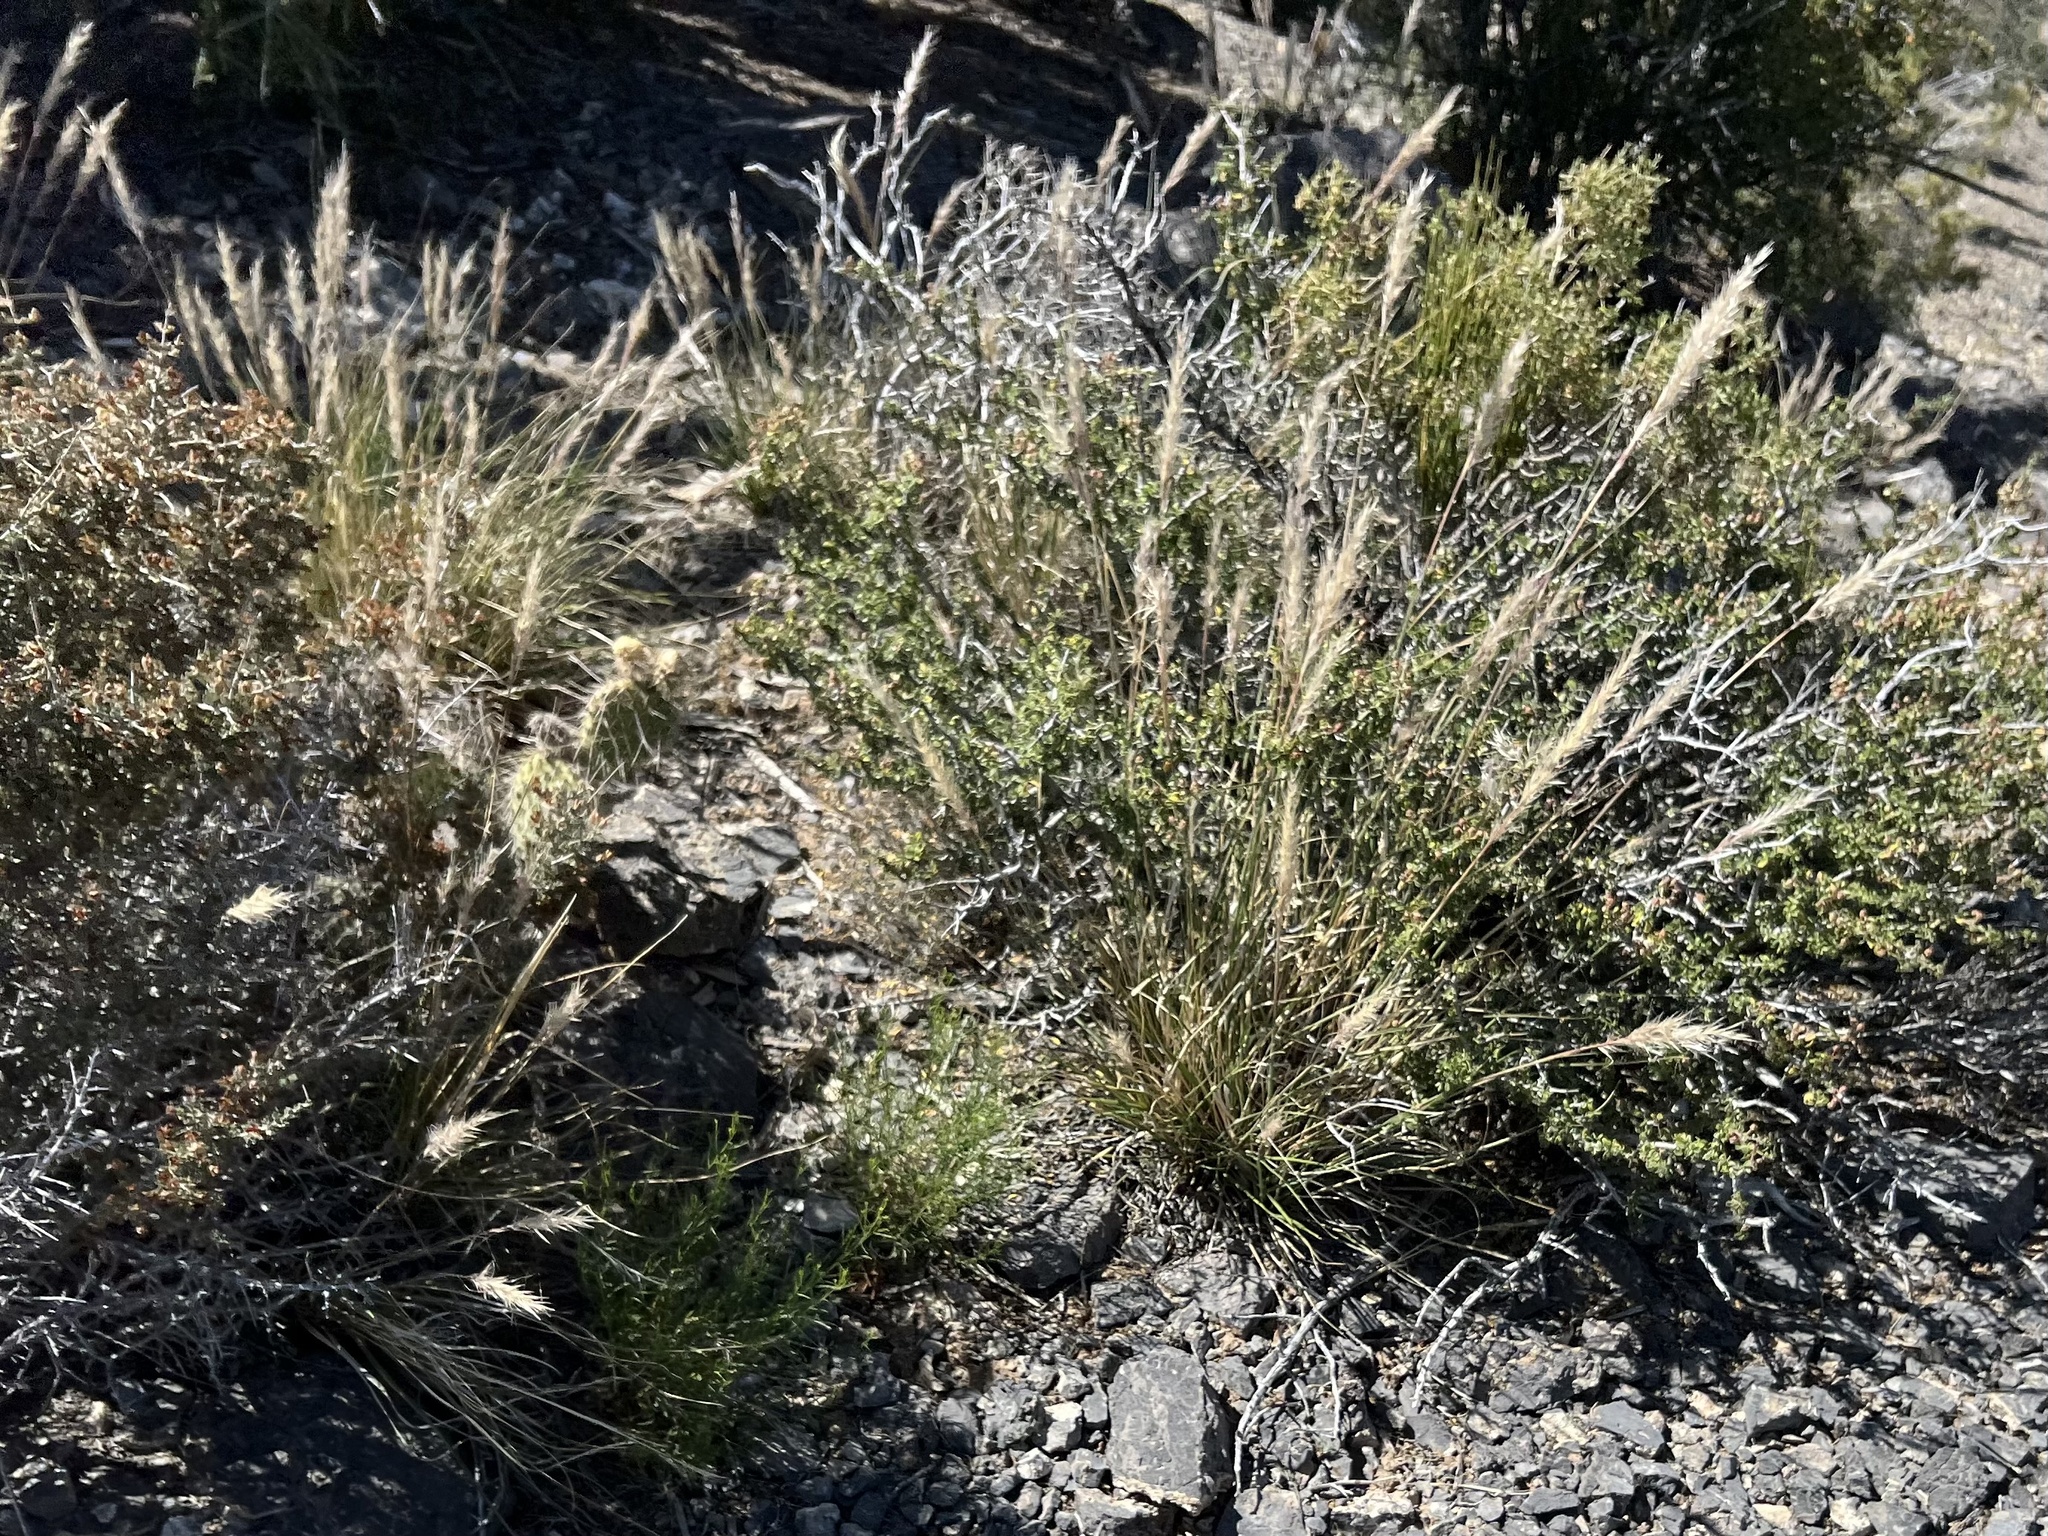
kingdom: Plantae
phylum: Tracheophyta
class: Liliopsida
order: Poales
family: Poaceae
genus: Pappostipa
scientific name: Pappostipa speciosa
